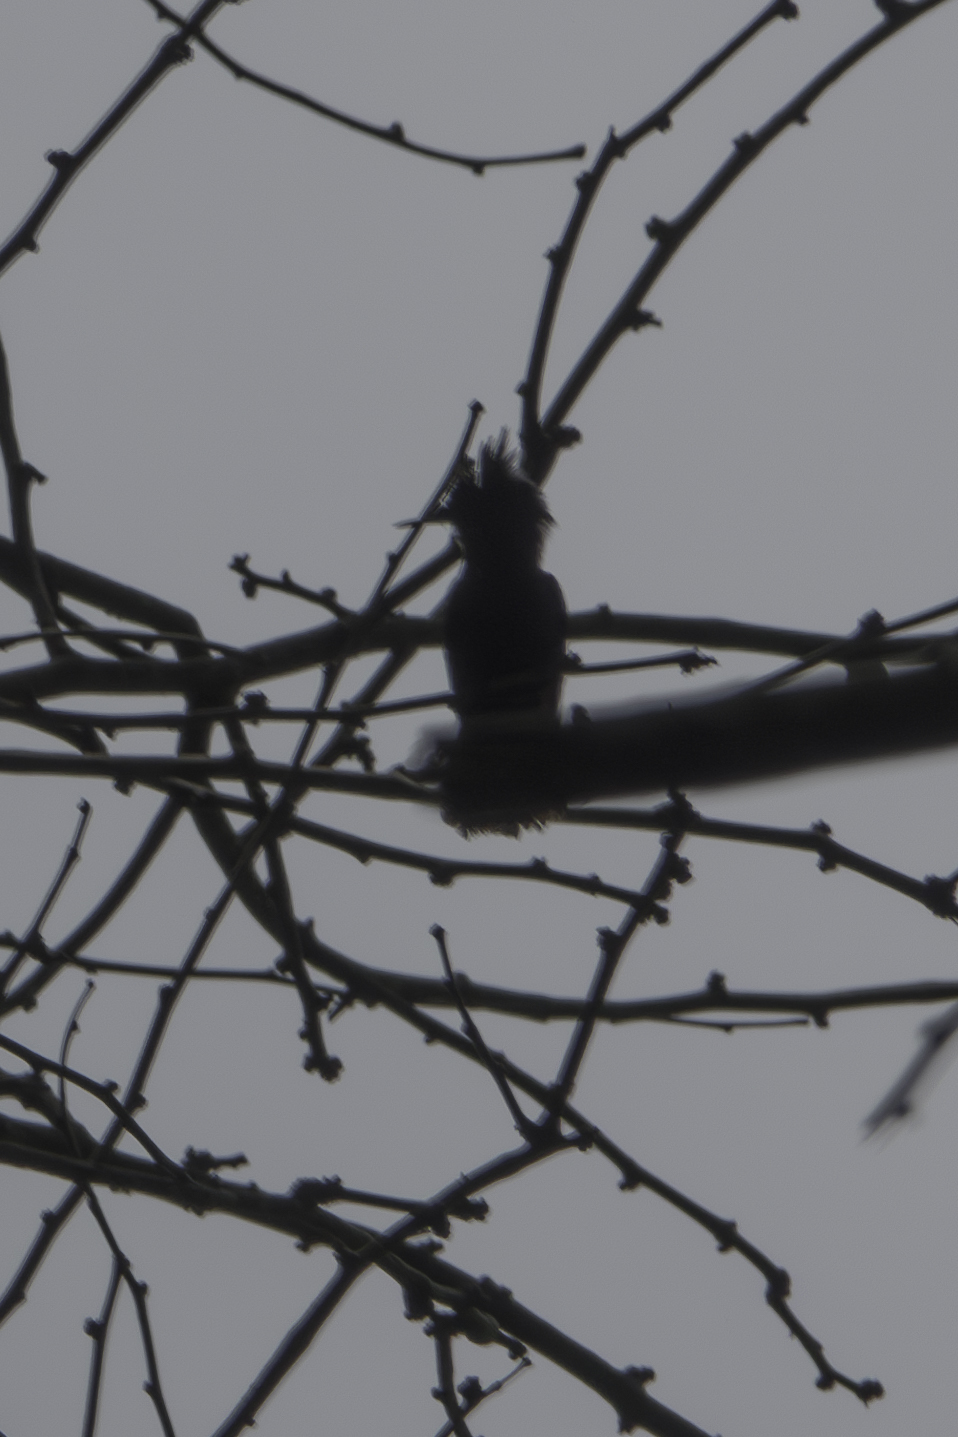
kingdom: Animalia
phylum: Chordata
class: Aves
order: Apodiformes
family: Trochilidae
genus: Orthorhyncus
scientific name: Orthorhyncus cristatus
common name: Antillean crested hummingbird
